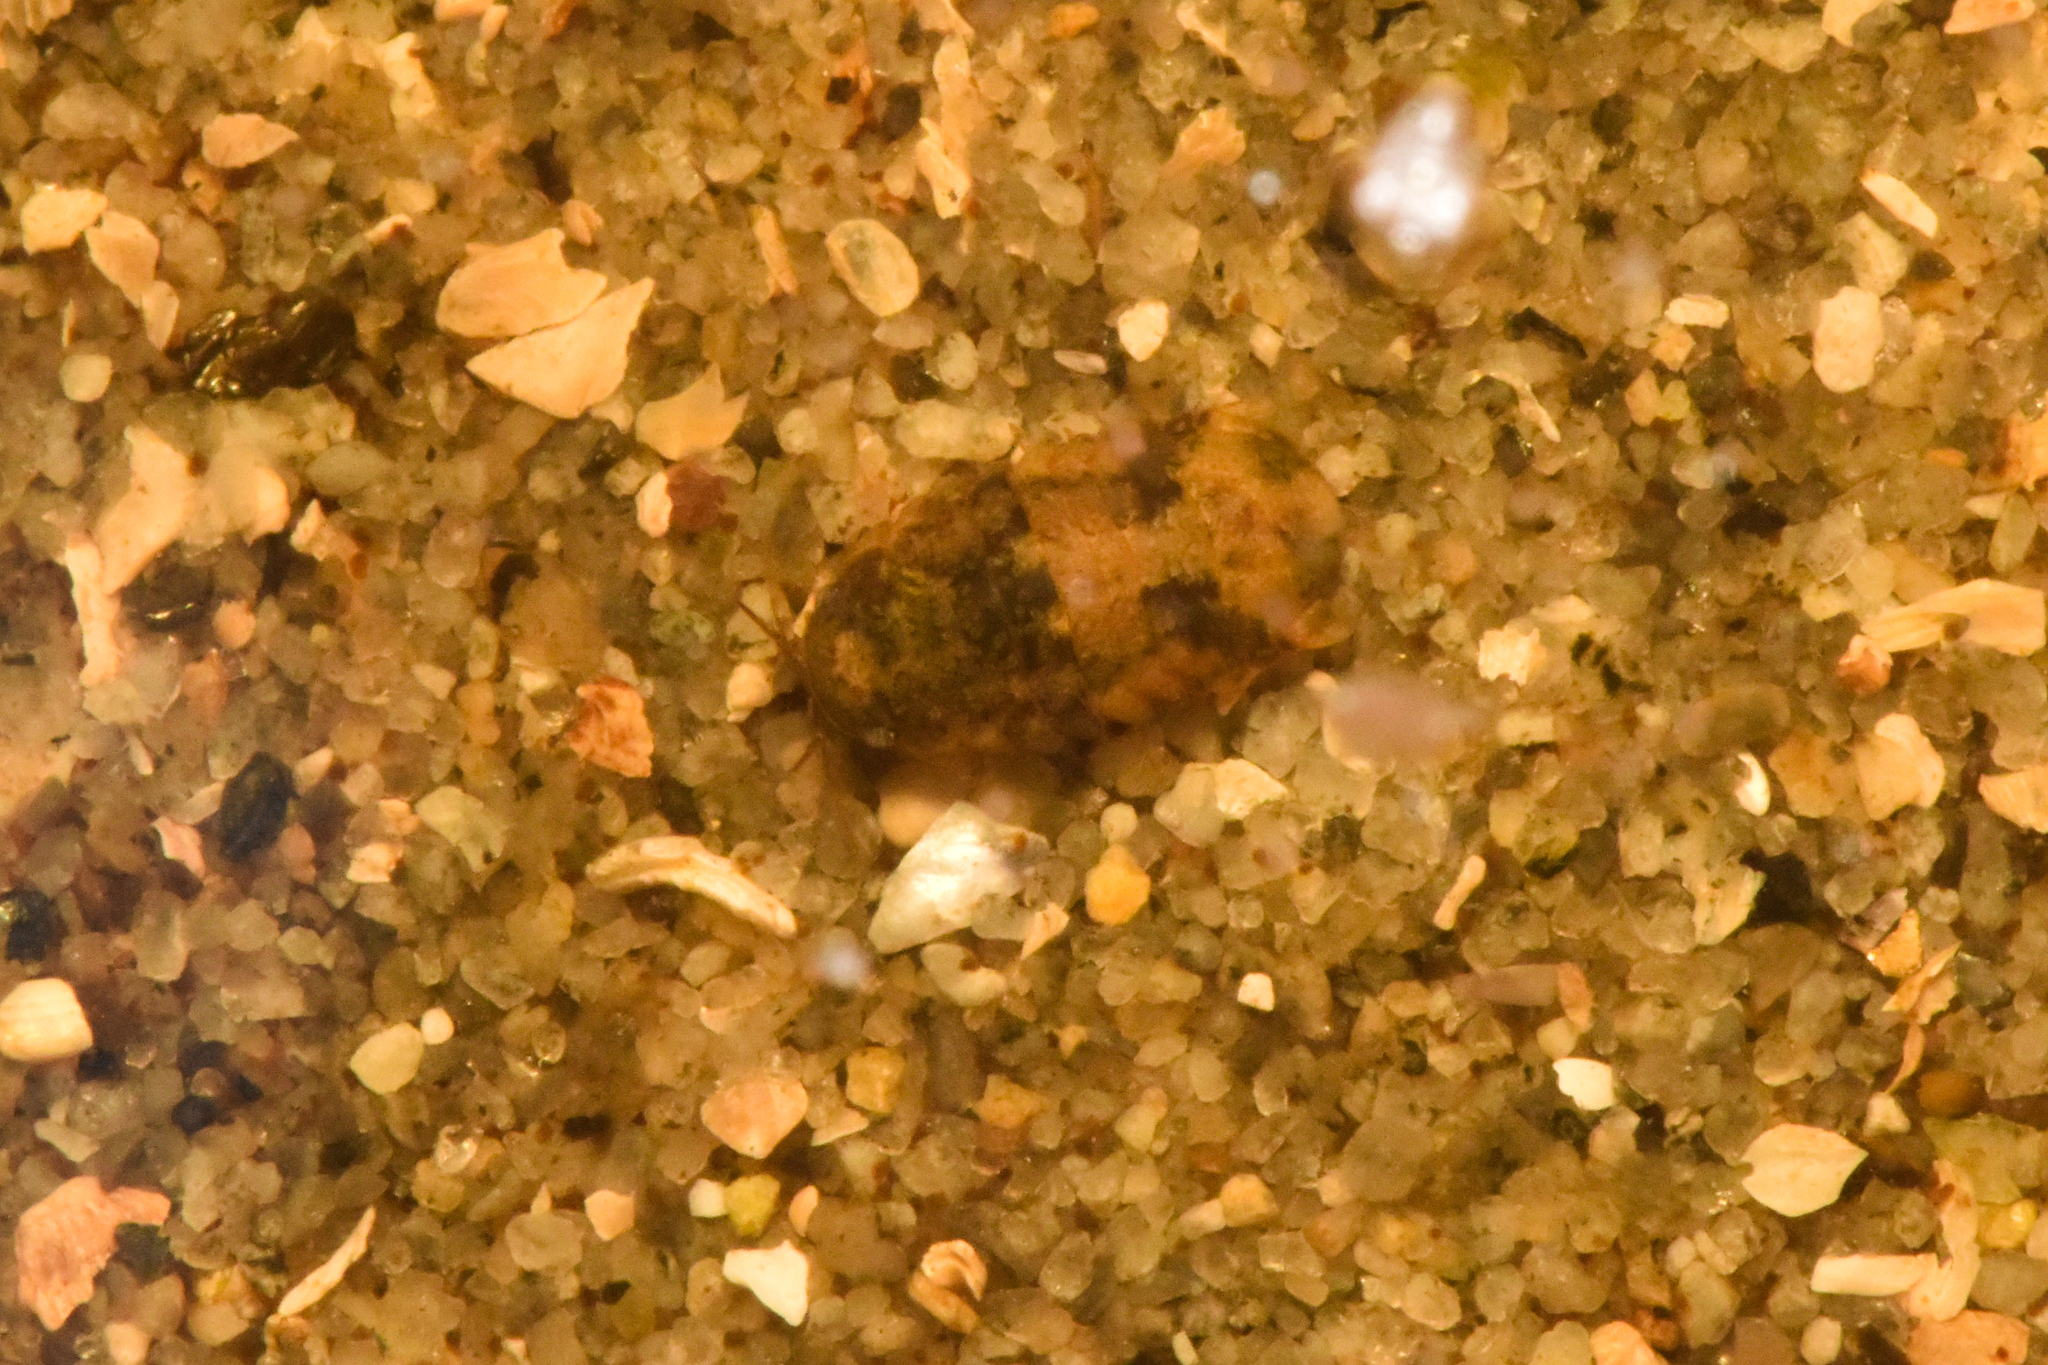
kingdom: Animalia
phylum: Arthropoda
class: Malacostraca
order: Isopoda
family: Sphaeromatidae
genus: Gnorimosphaeroma
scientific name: Gnorimosphaeroma oregonense
